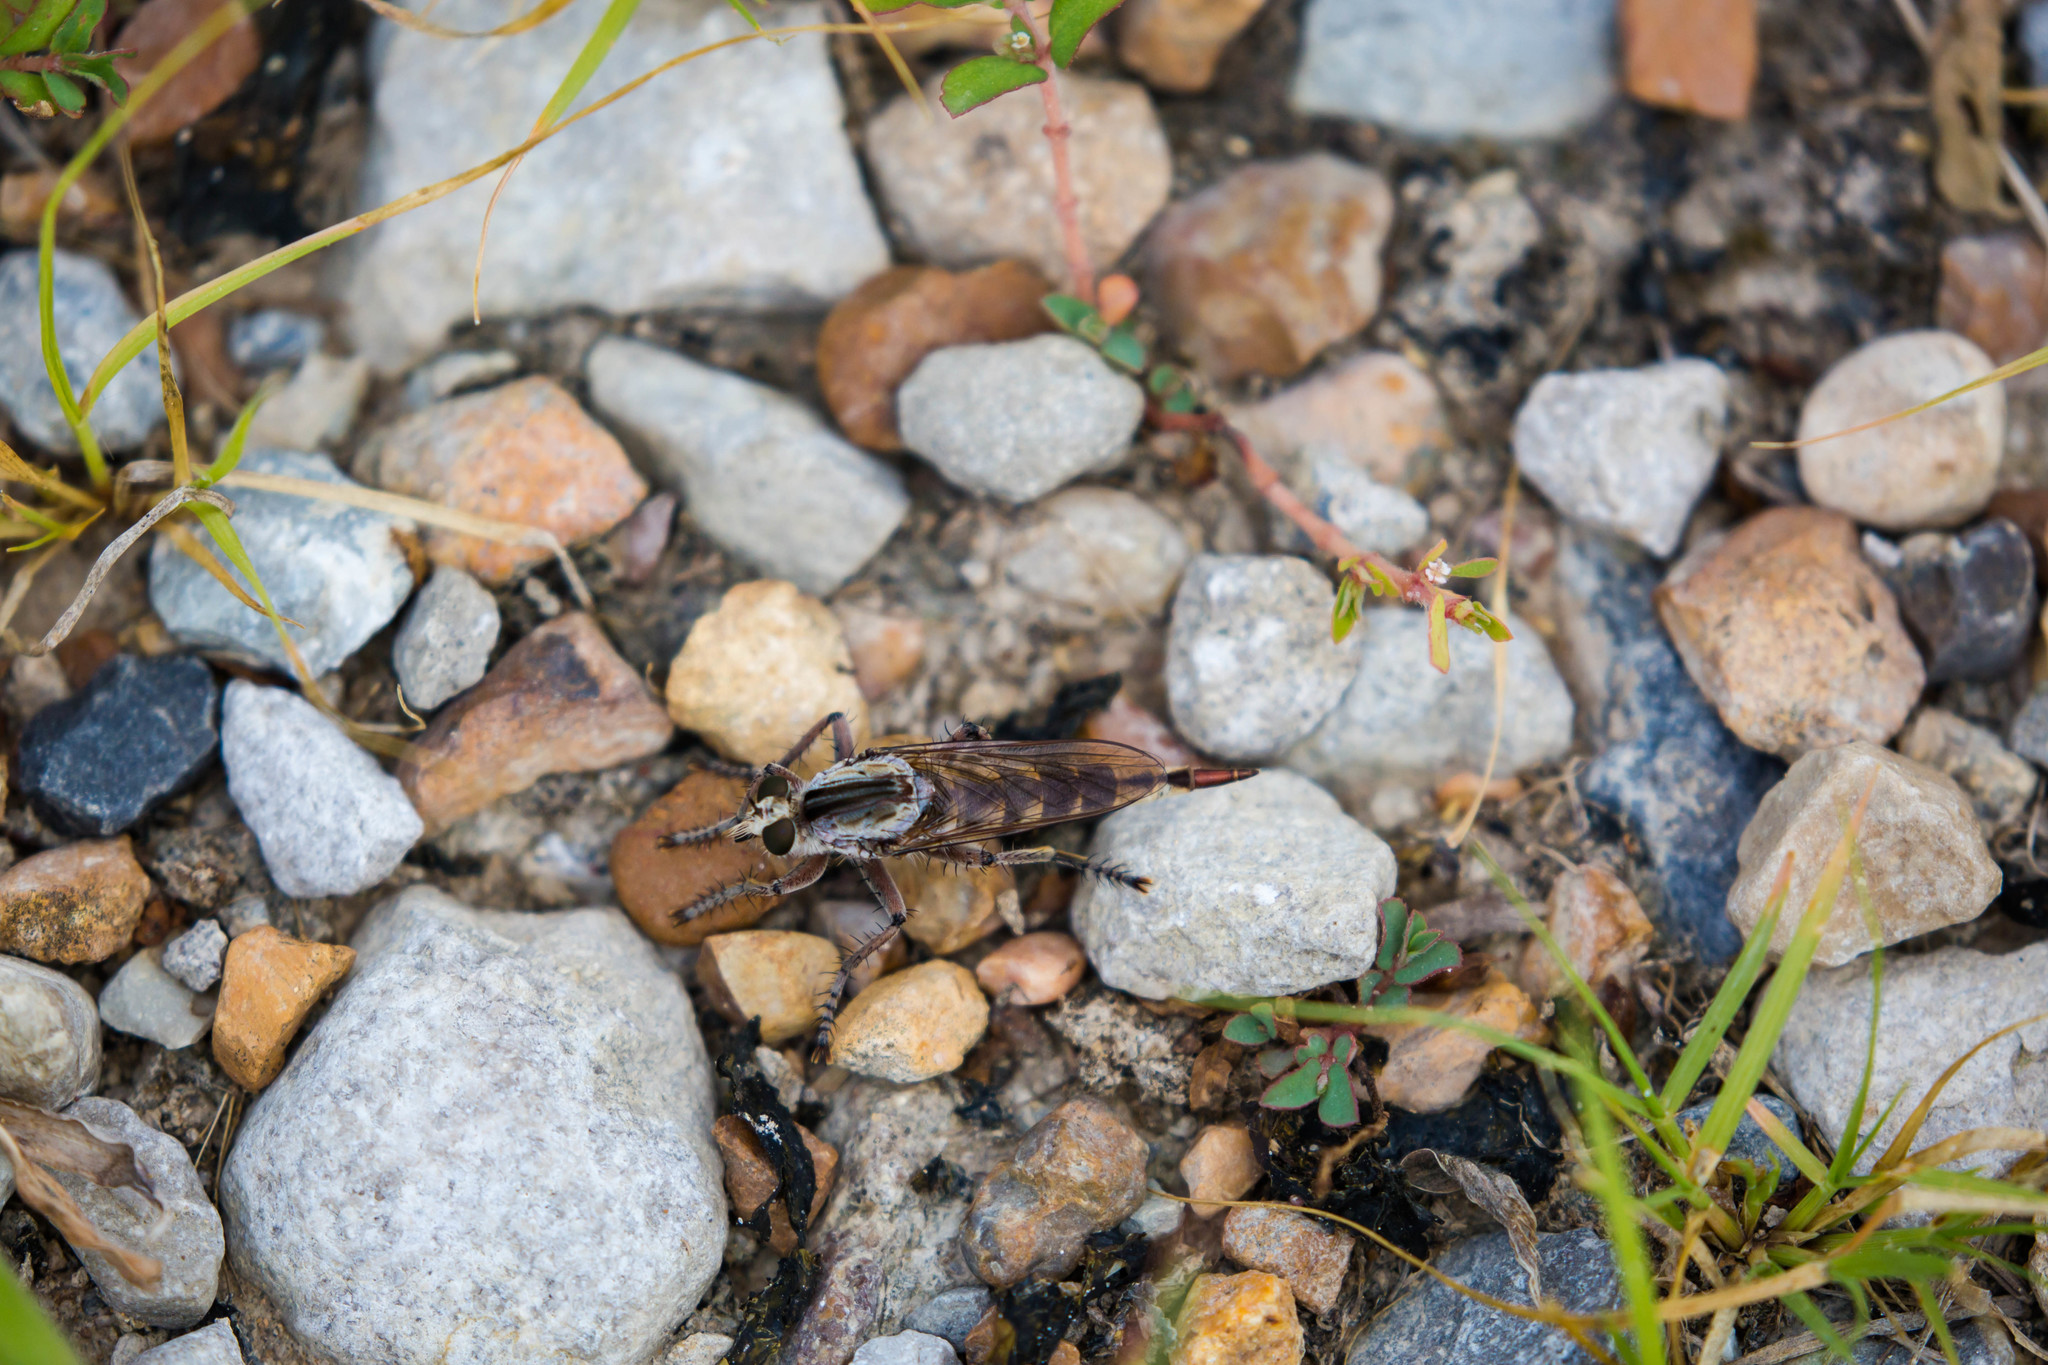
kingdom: Animalia
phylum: Arthropoda
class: Insecta
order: Diptera
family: Asilidae
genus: Triorla
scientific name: Triorla interrupta
